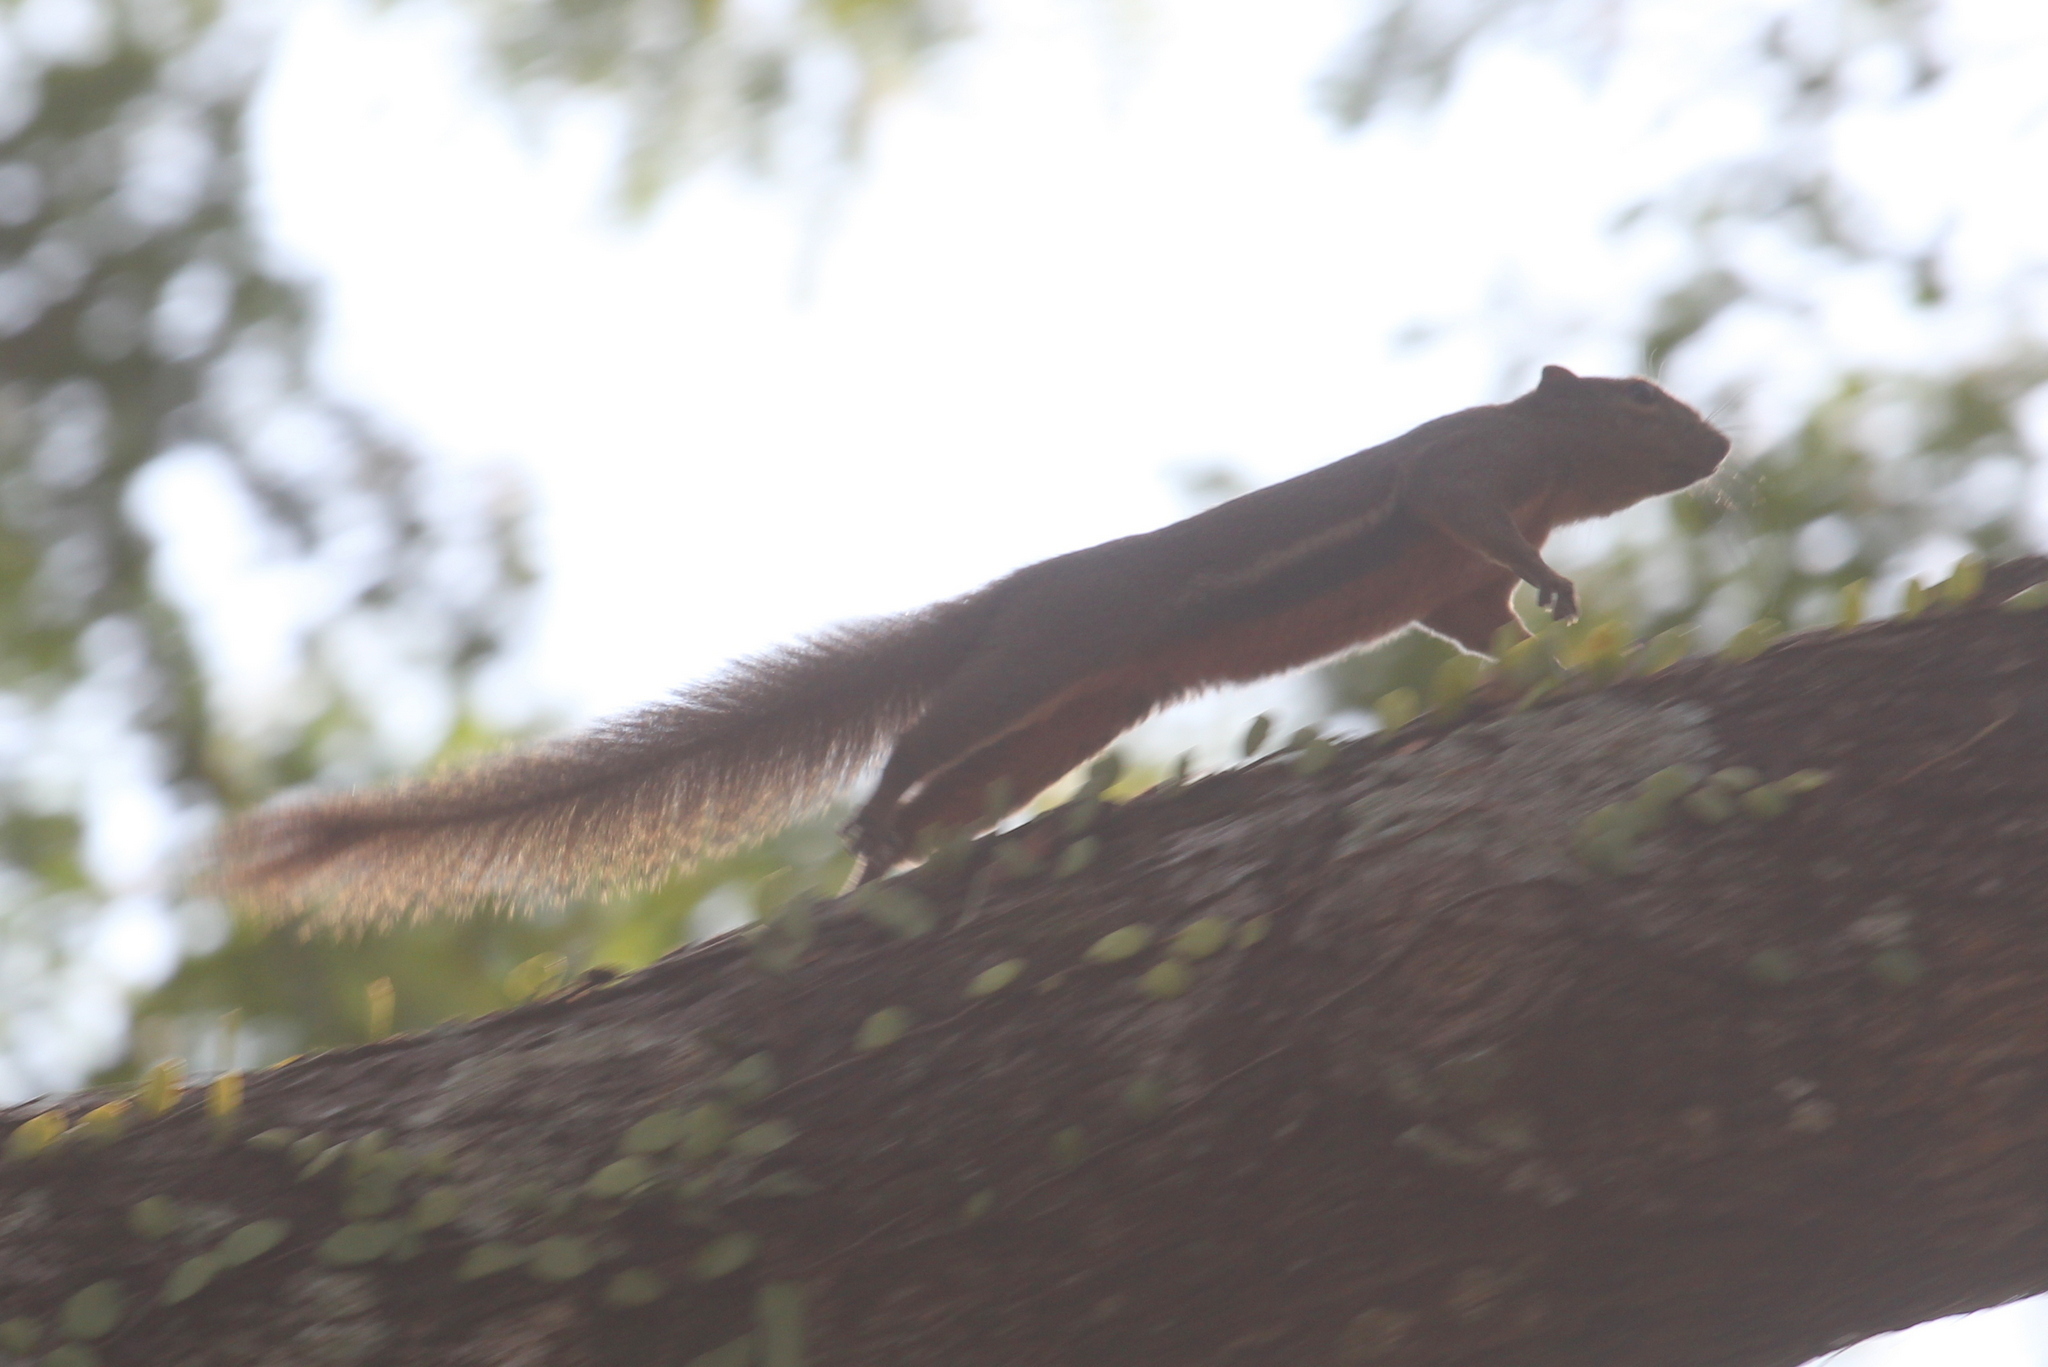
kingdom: Animalia
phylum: Chordata
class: Mammalia
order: Rodentia
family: Sciuridae
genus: Callosciurus
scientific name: Callosciurus notatus
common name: Plantain squirrel
